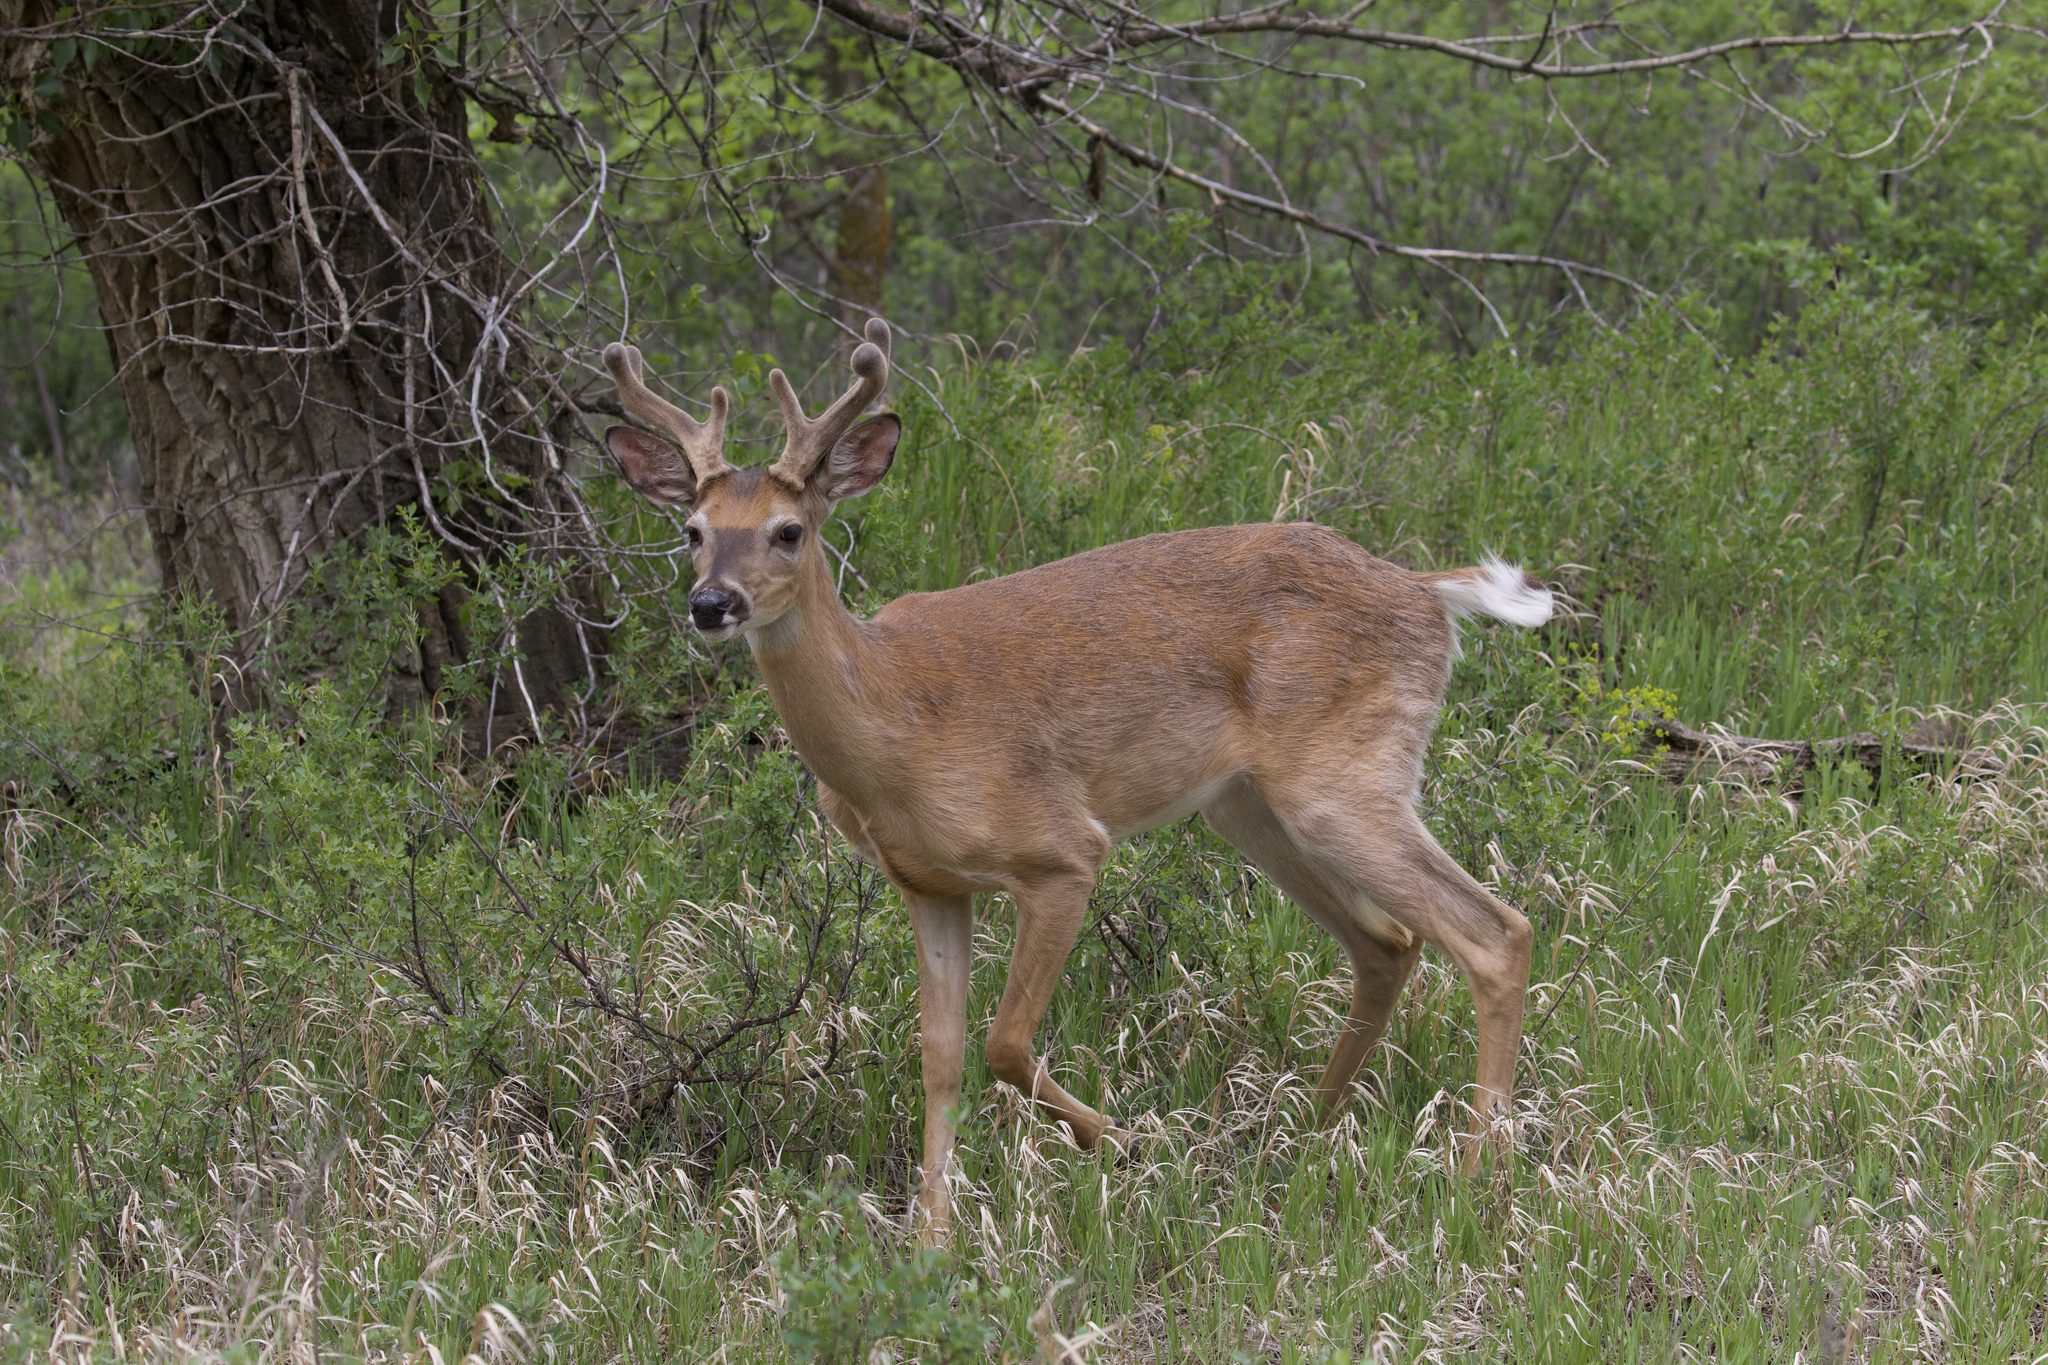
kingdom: Animalia
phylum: Chordata
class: Mammalia
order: Artiodactyla
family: Cervidae
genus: Odocoileus
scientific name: Odocoileus virginianus
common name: White-tailed deer
